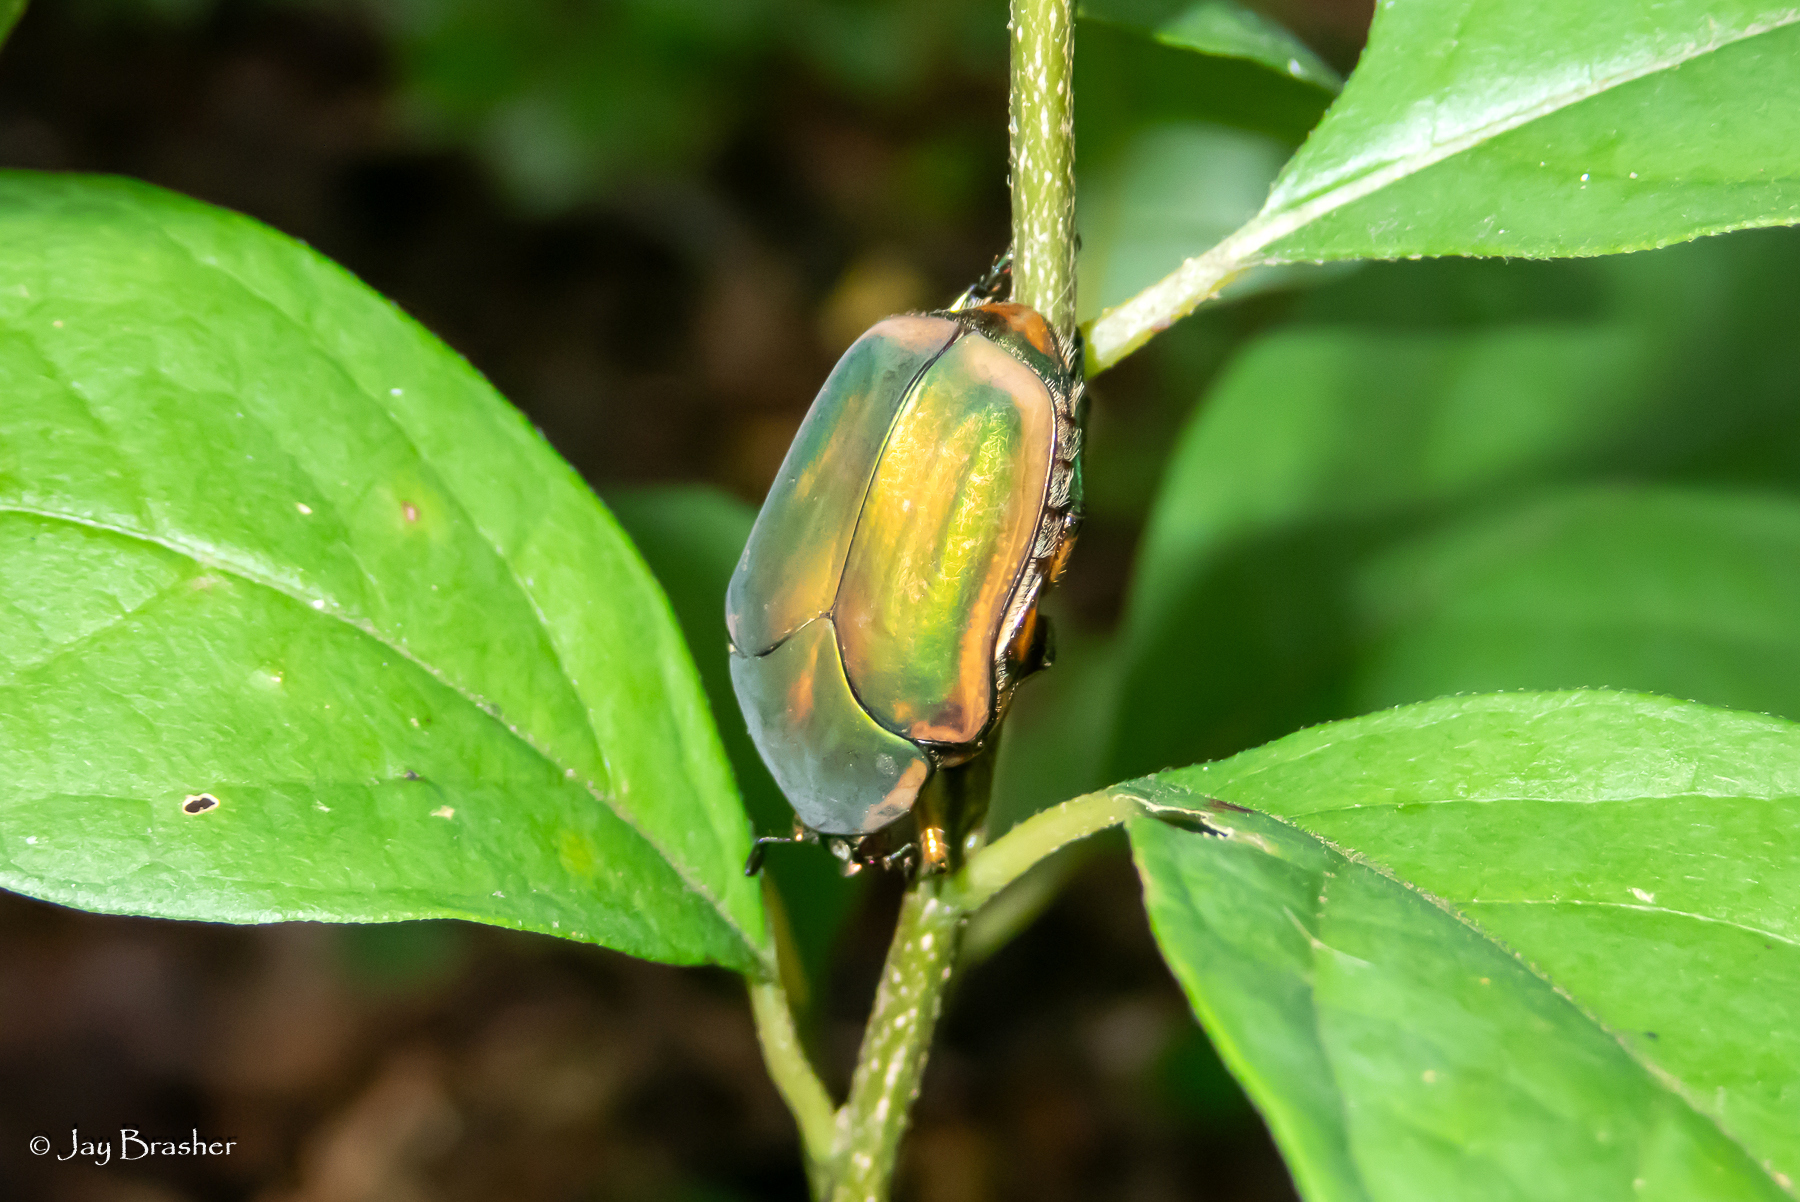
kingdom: Animalia
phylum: Arthropoda
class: Insecta
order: Coleoptera
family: Scarabaeidae
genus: Cotinis
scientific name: Cotinis nitida
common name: Common green june beetle
